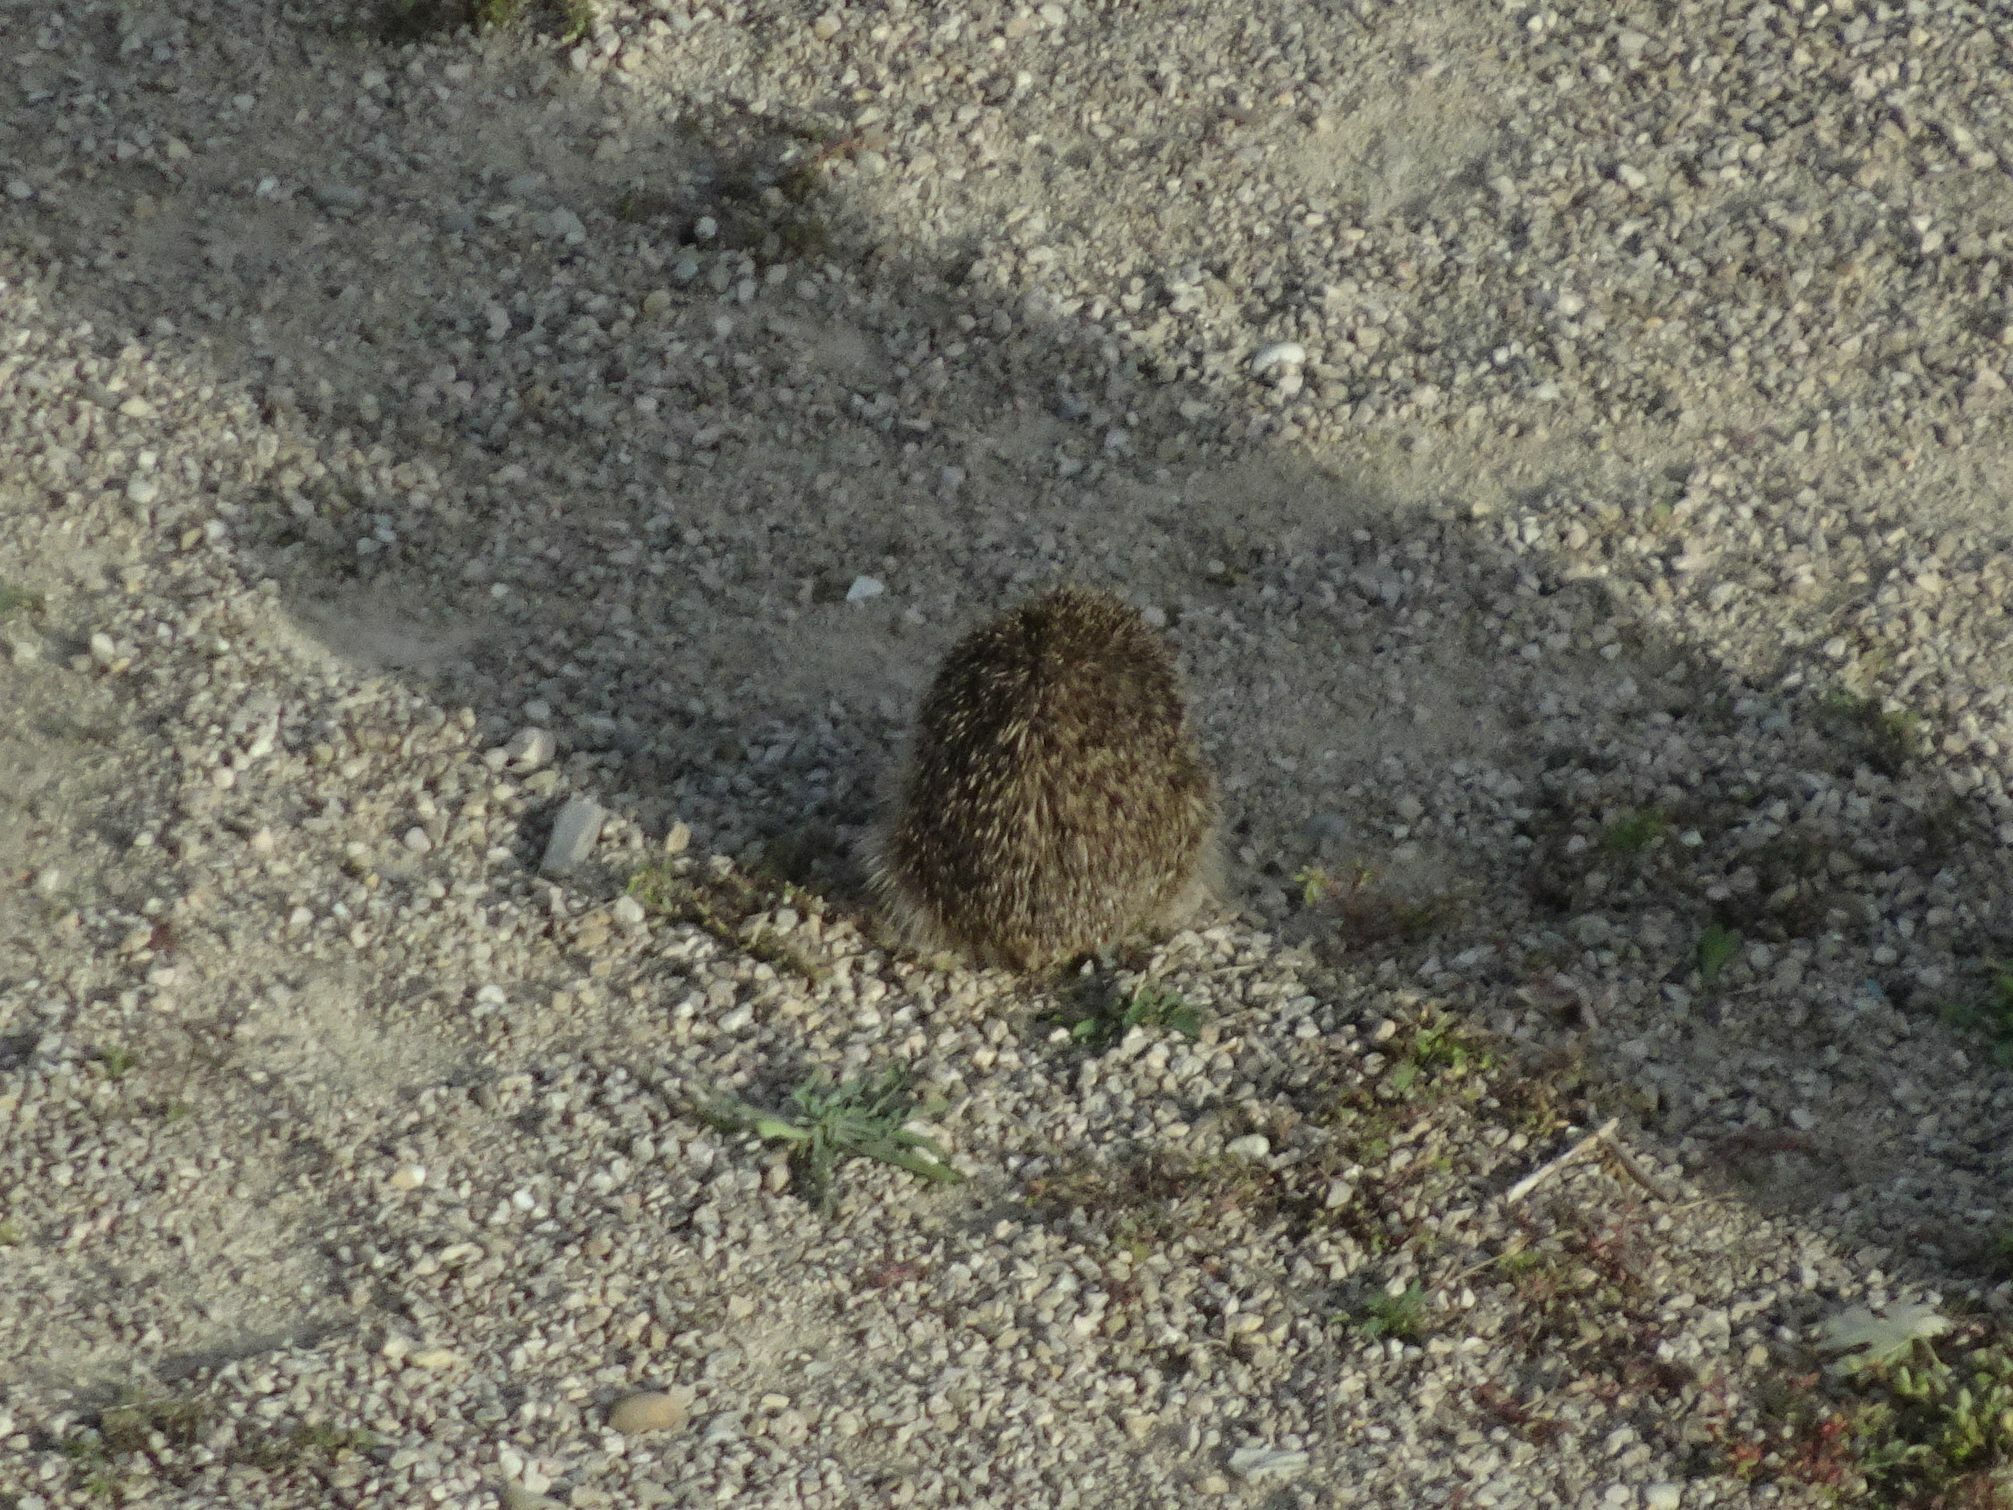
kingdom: Animalia
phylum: Chordata
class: Mammalia
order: Erinaceomorpha
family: Erinaceidae
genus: Erinaceus
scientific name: Erinaceus europaeus
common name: West european hedgehog
